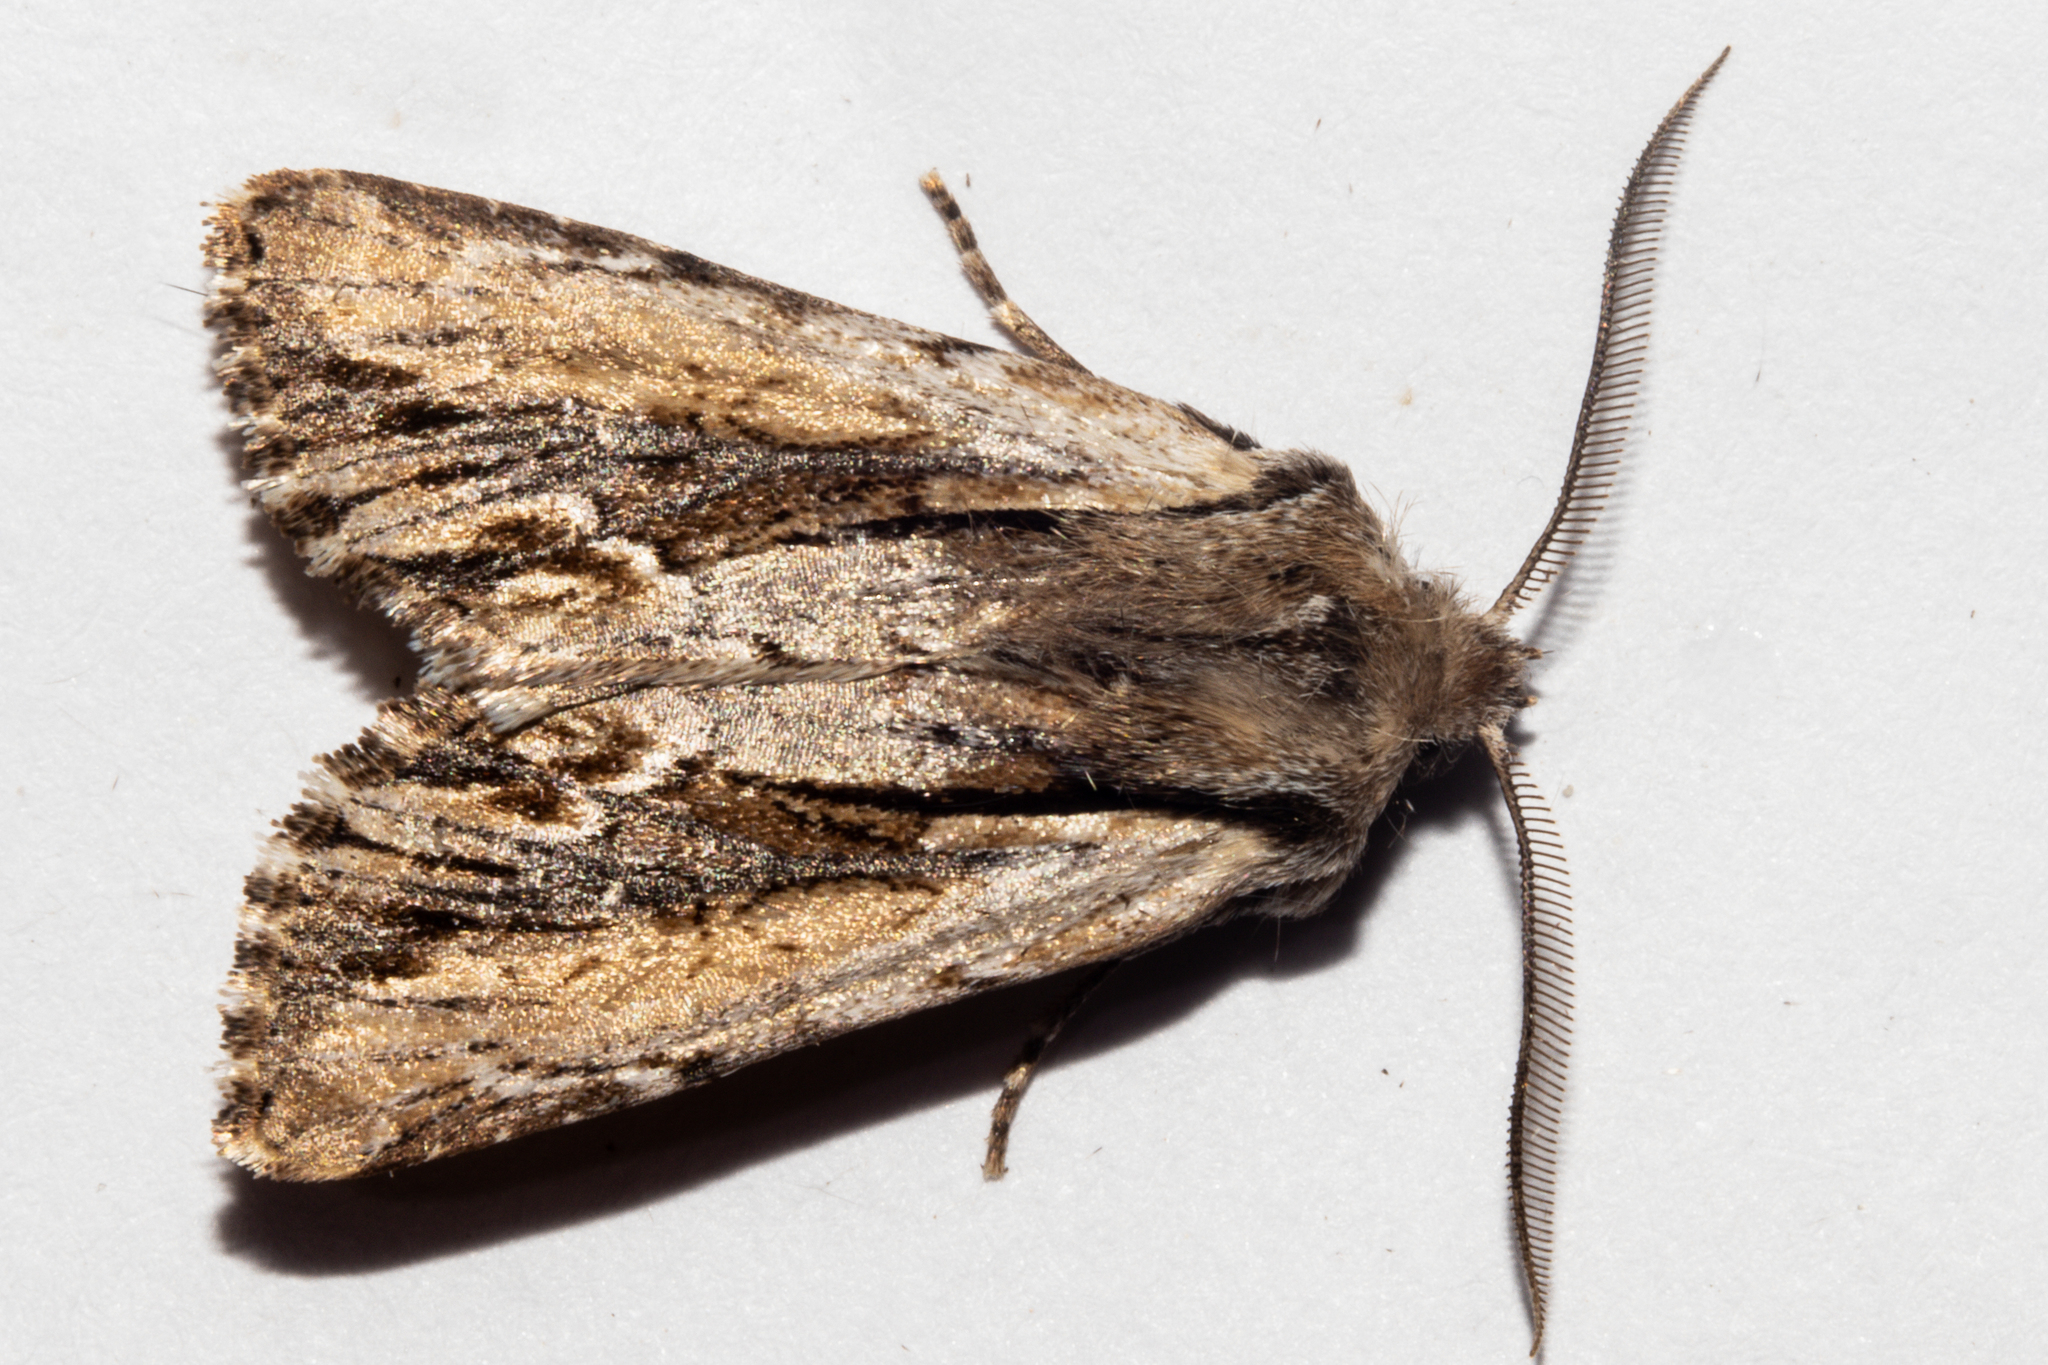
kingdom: Animalia
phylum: Arthropoda
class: Insecta
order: Lepidoptera
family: Noctuidae
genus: Ichneutica
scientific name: Ichneutica
